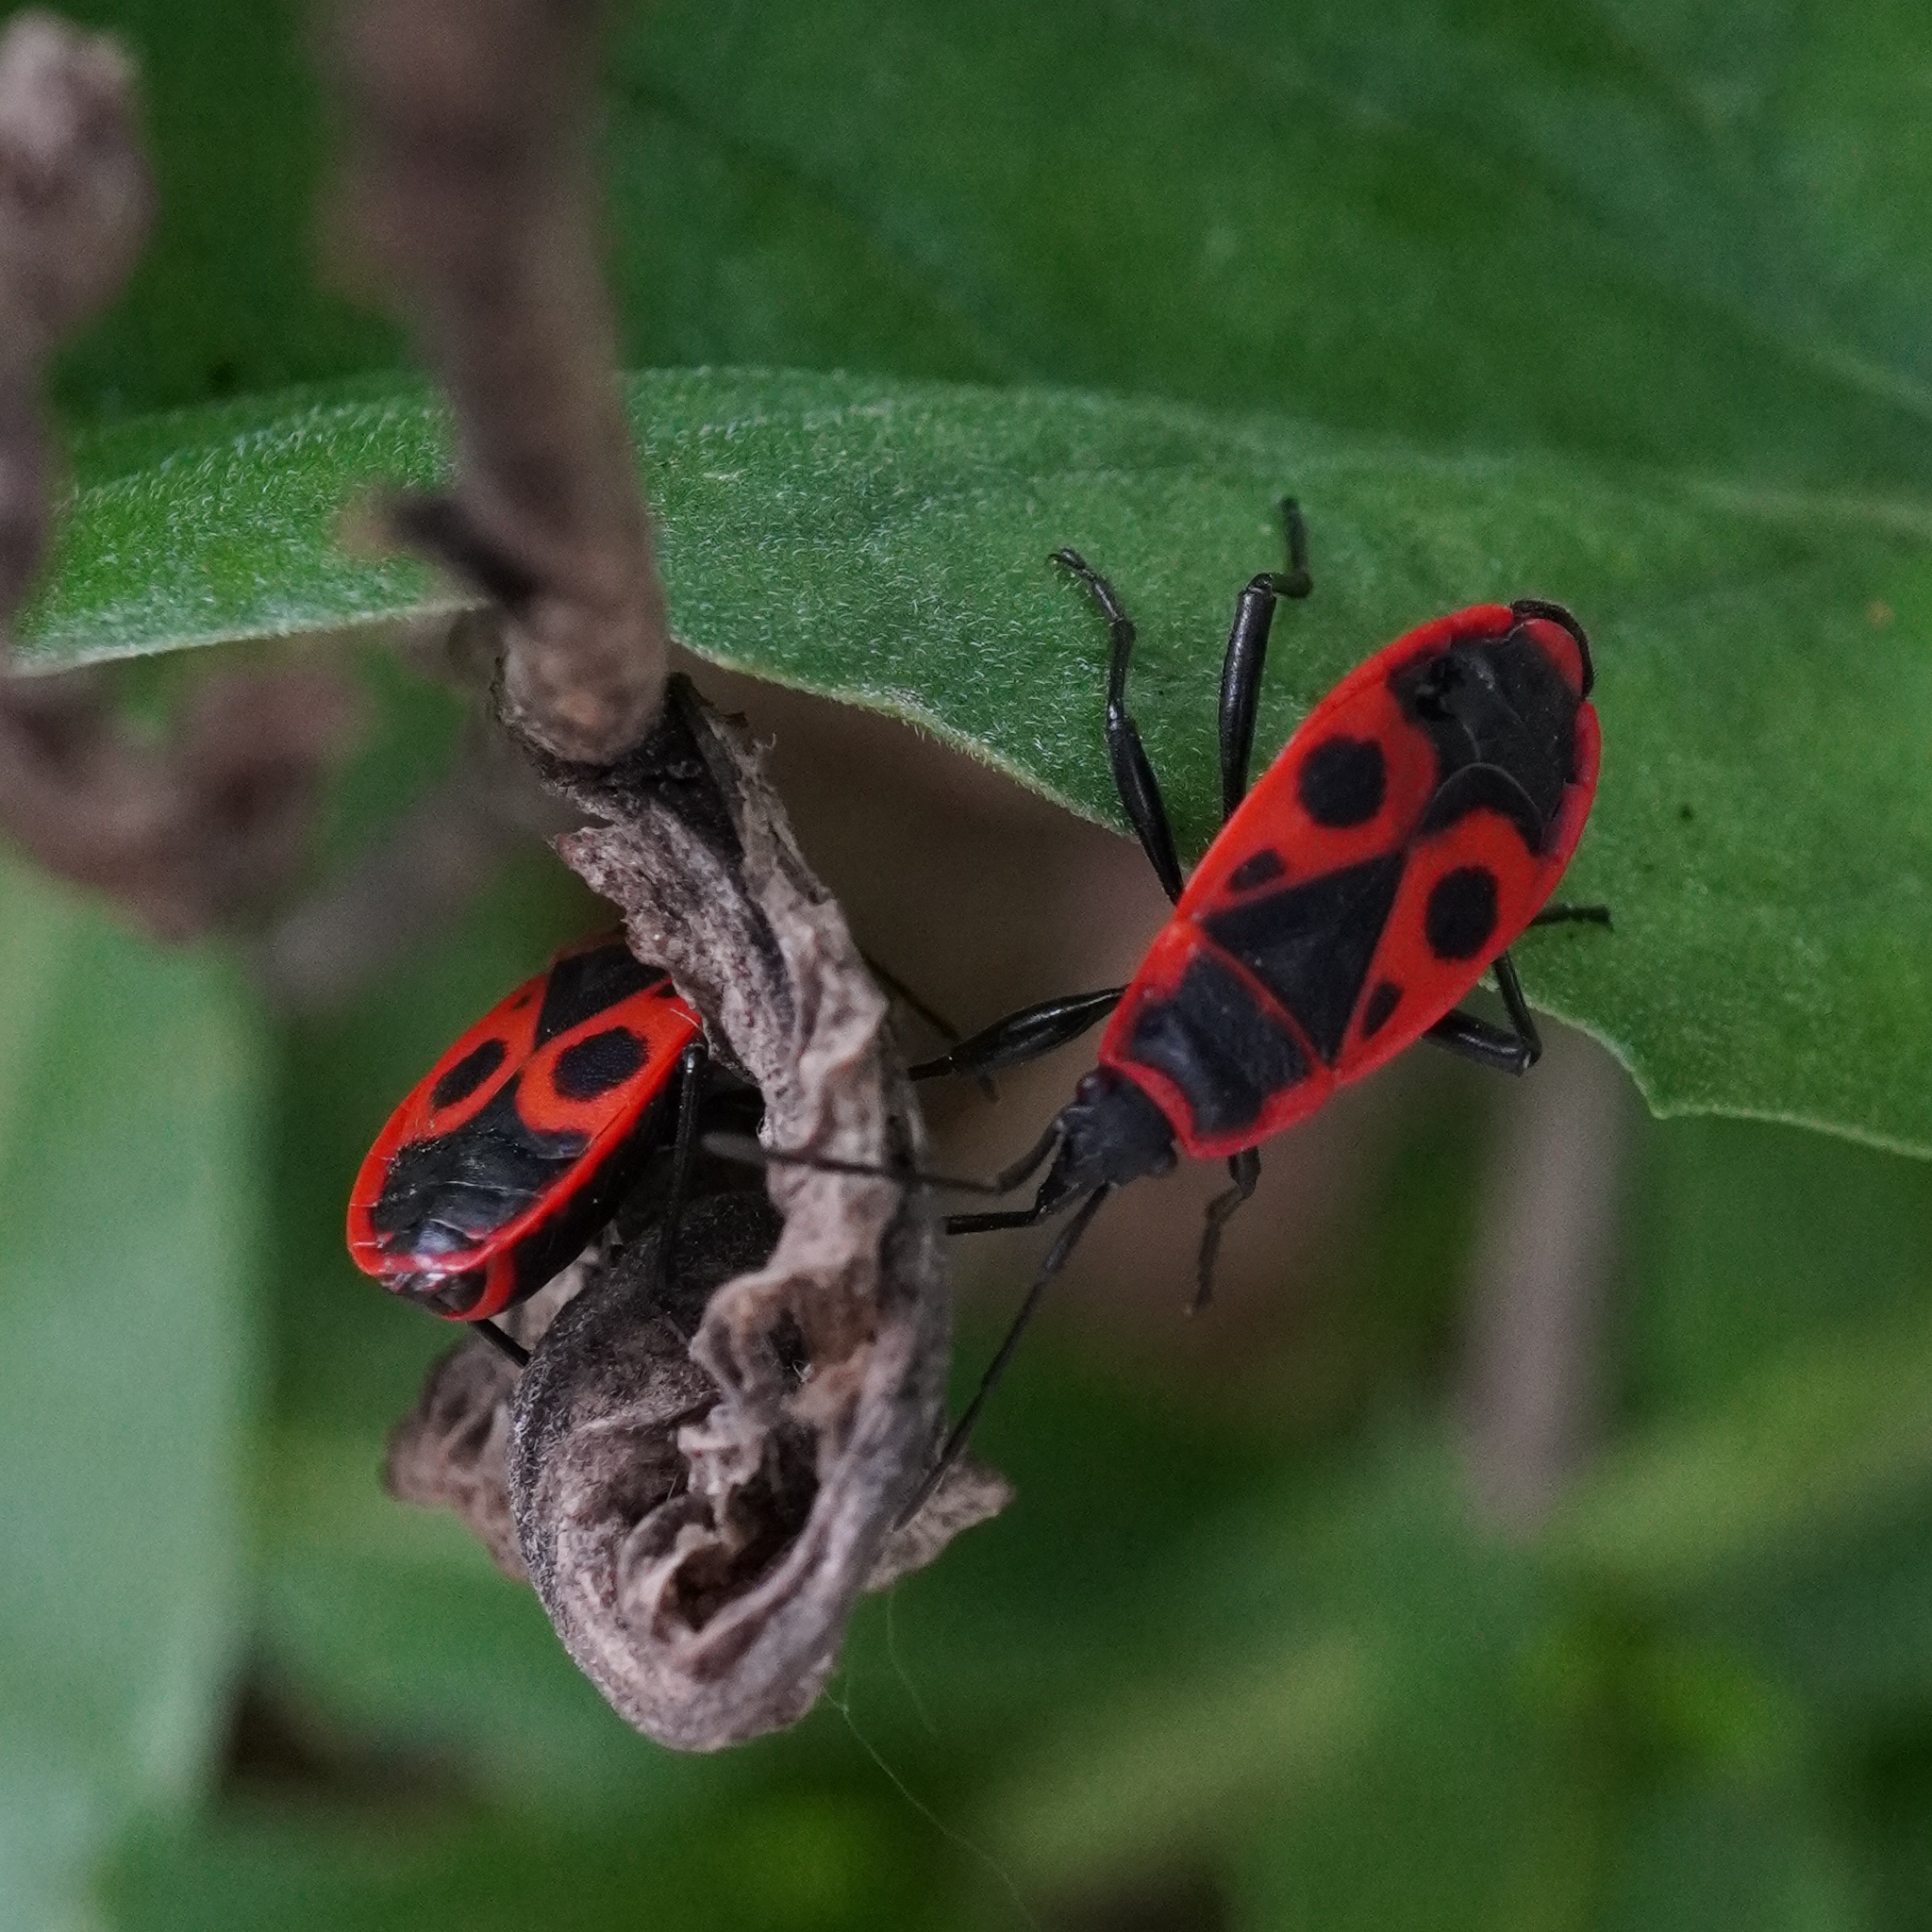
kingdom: Animalia
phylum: Arthropoda
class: Insecta
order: Hemiptera
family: Pyrrhocoridae
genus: Pyrrhocoris
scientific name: Pyrrhocoris apterus
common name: Firebug
